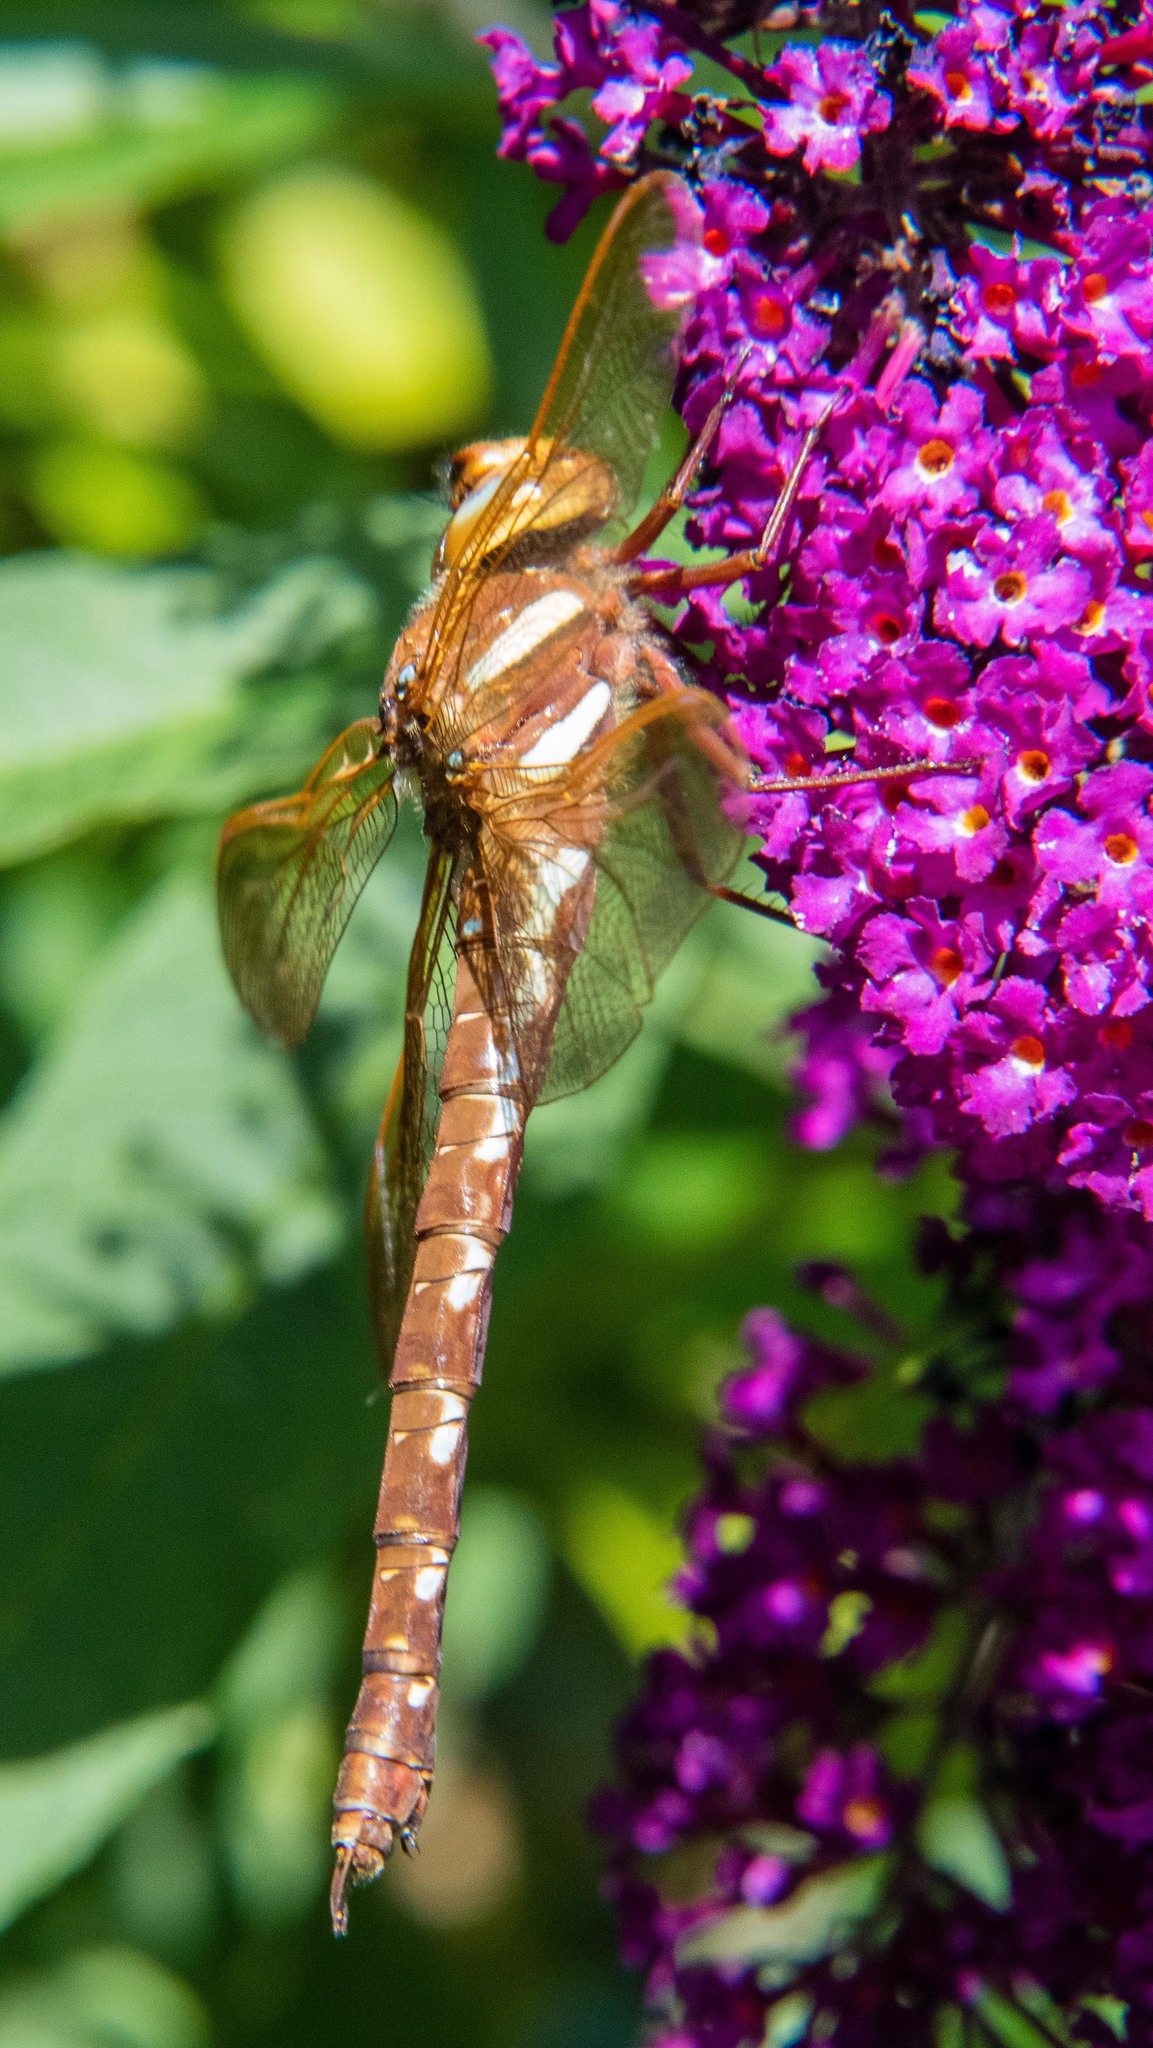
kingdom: Animalia
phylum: Arthropoda
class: Insecta
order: Odonata
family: Aeshnidae
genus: Aeshna
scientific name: Aeshna grandis
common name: Brown hawker
